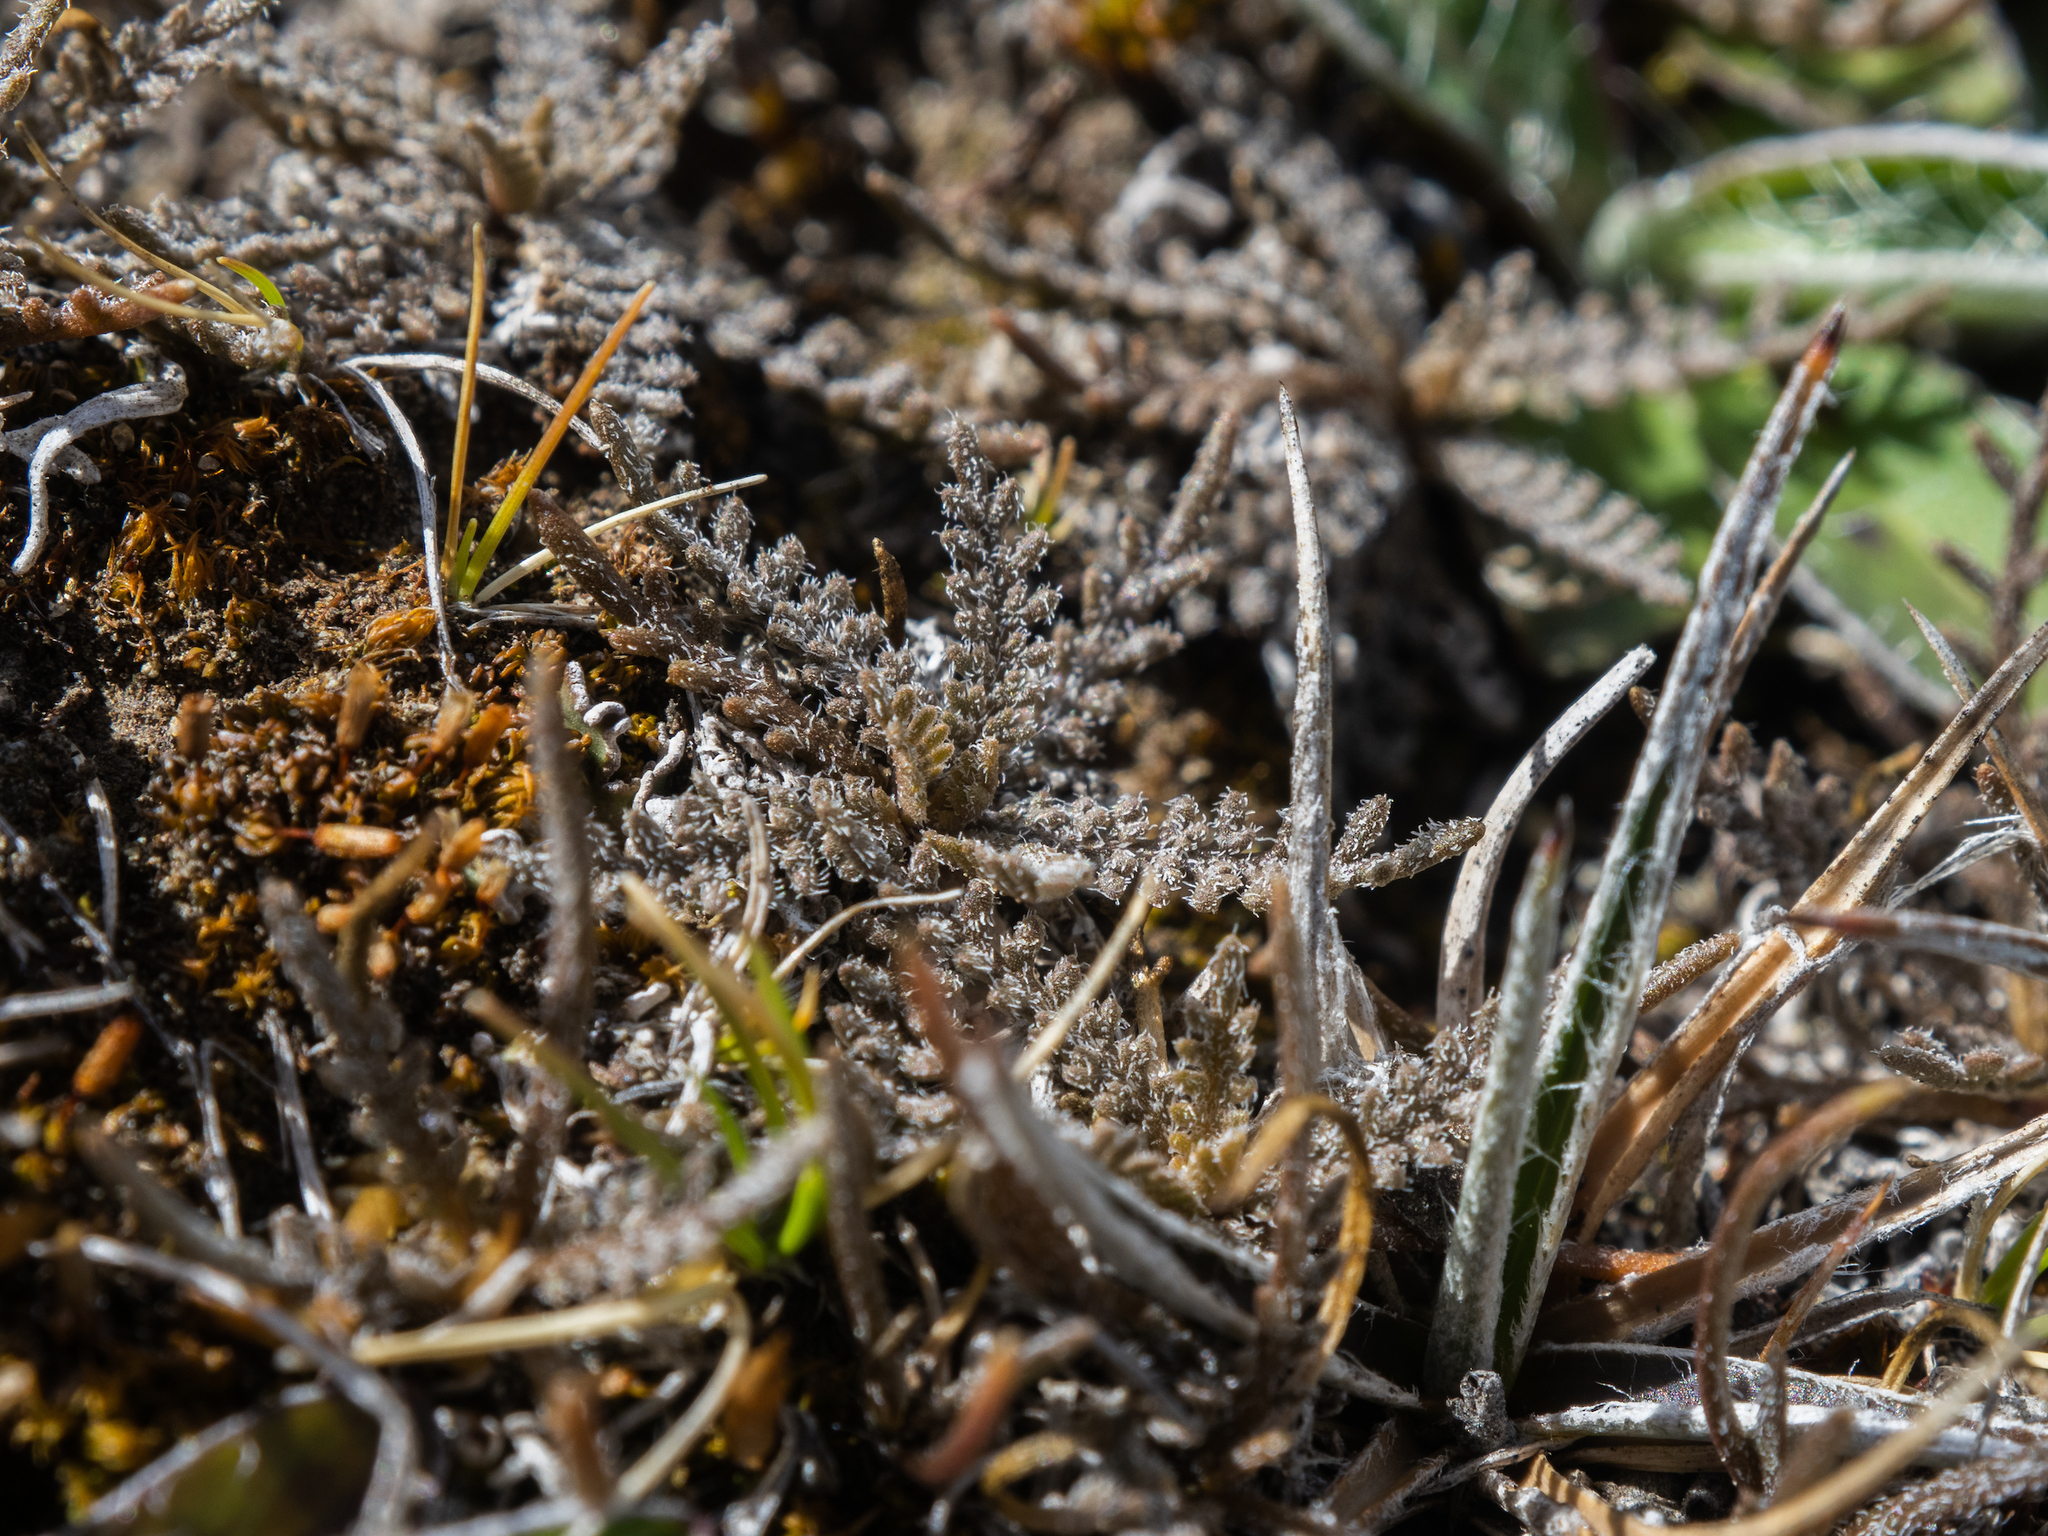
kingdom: Plantae
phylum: Tracheophyta
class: Magnoliopsida
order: Brassicales
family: Brassicaceae
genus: Lepidium
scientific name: Lepidium sisymbrioides
